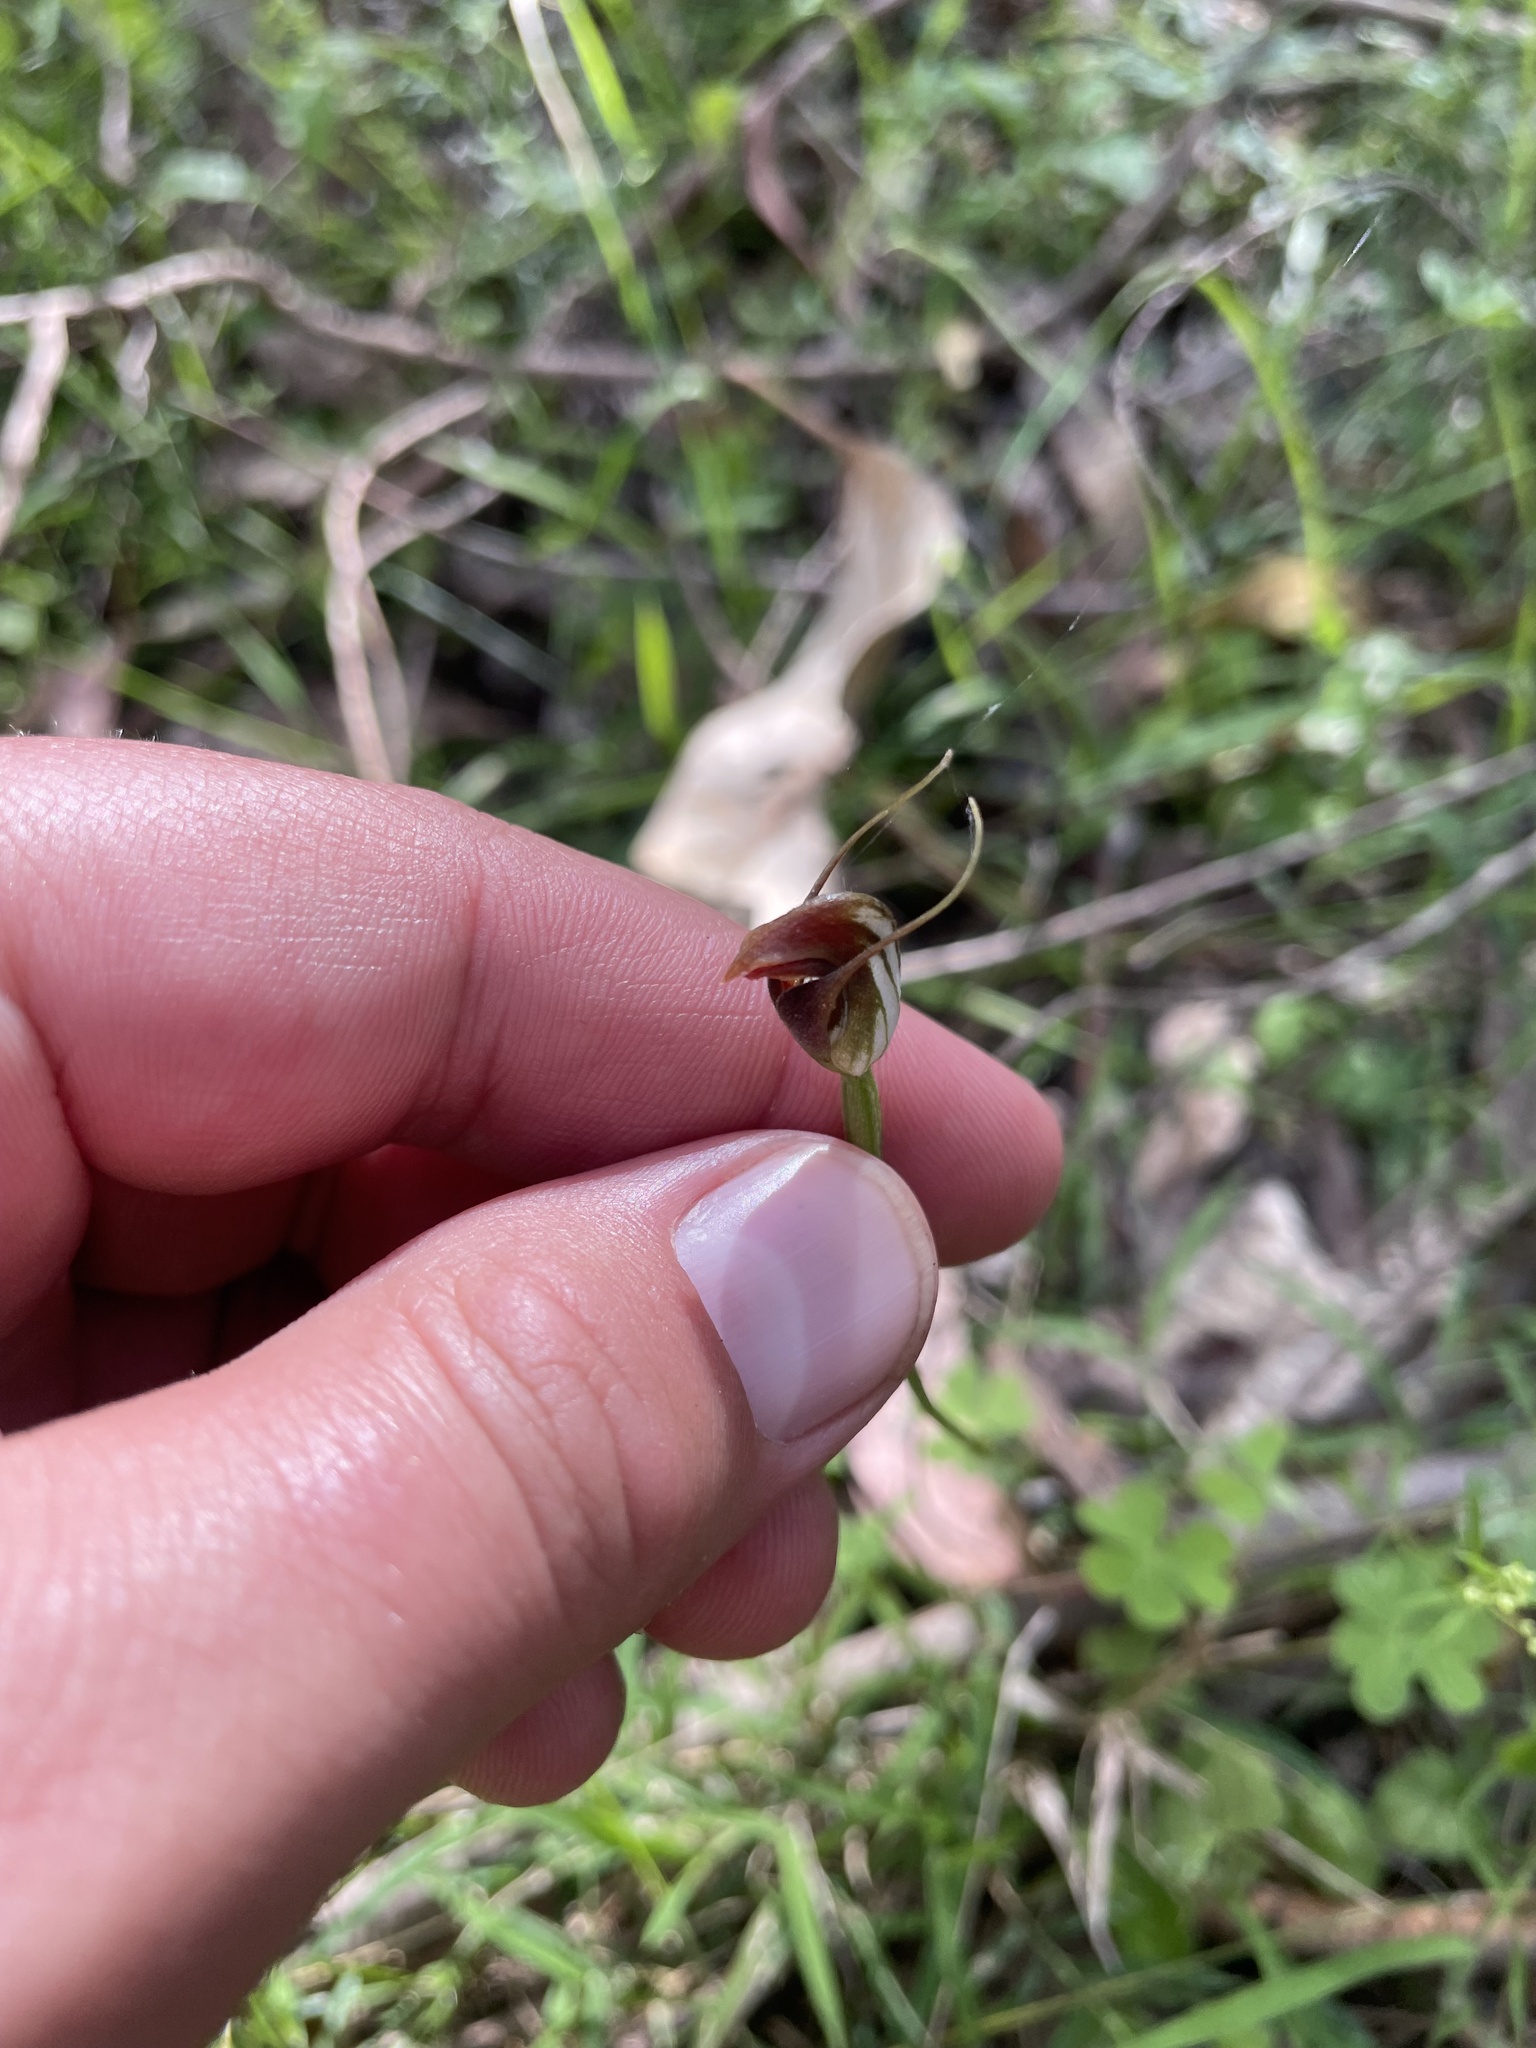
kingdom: Plantae
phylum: Tracheophyta
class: Liliopsida
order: Asparagales
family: Orchidaceae
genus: Pterostylis
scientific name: Pterostylis pedunculata
